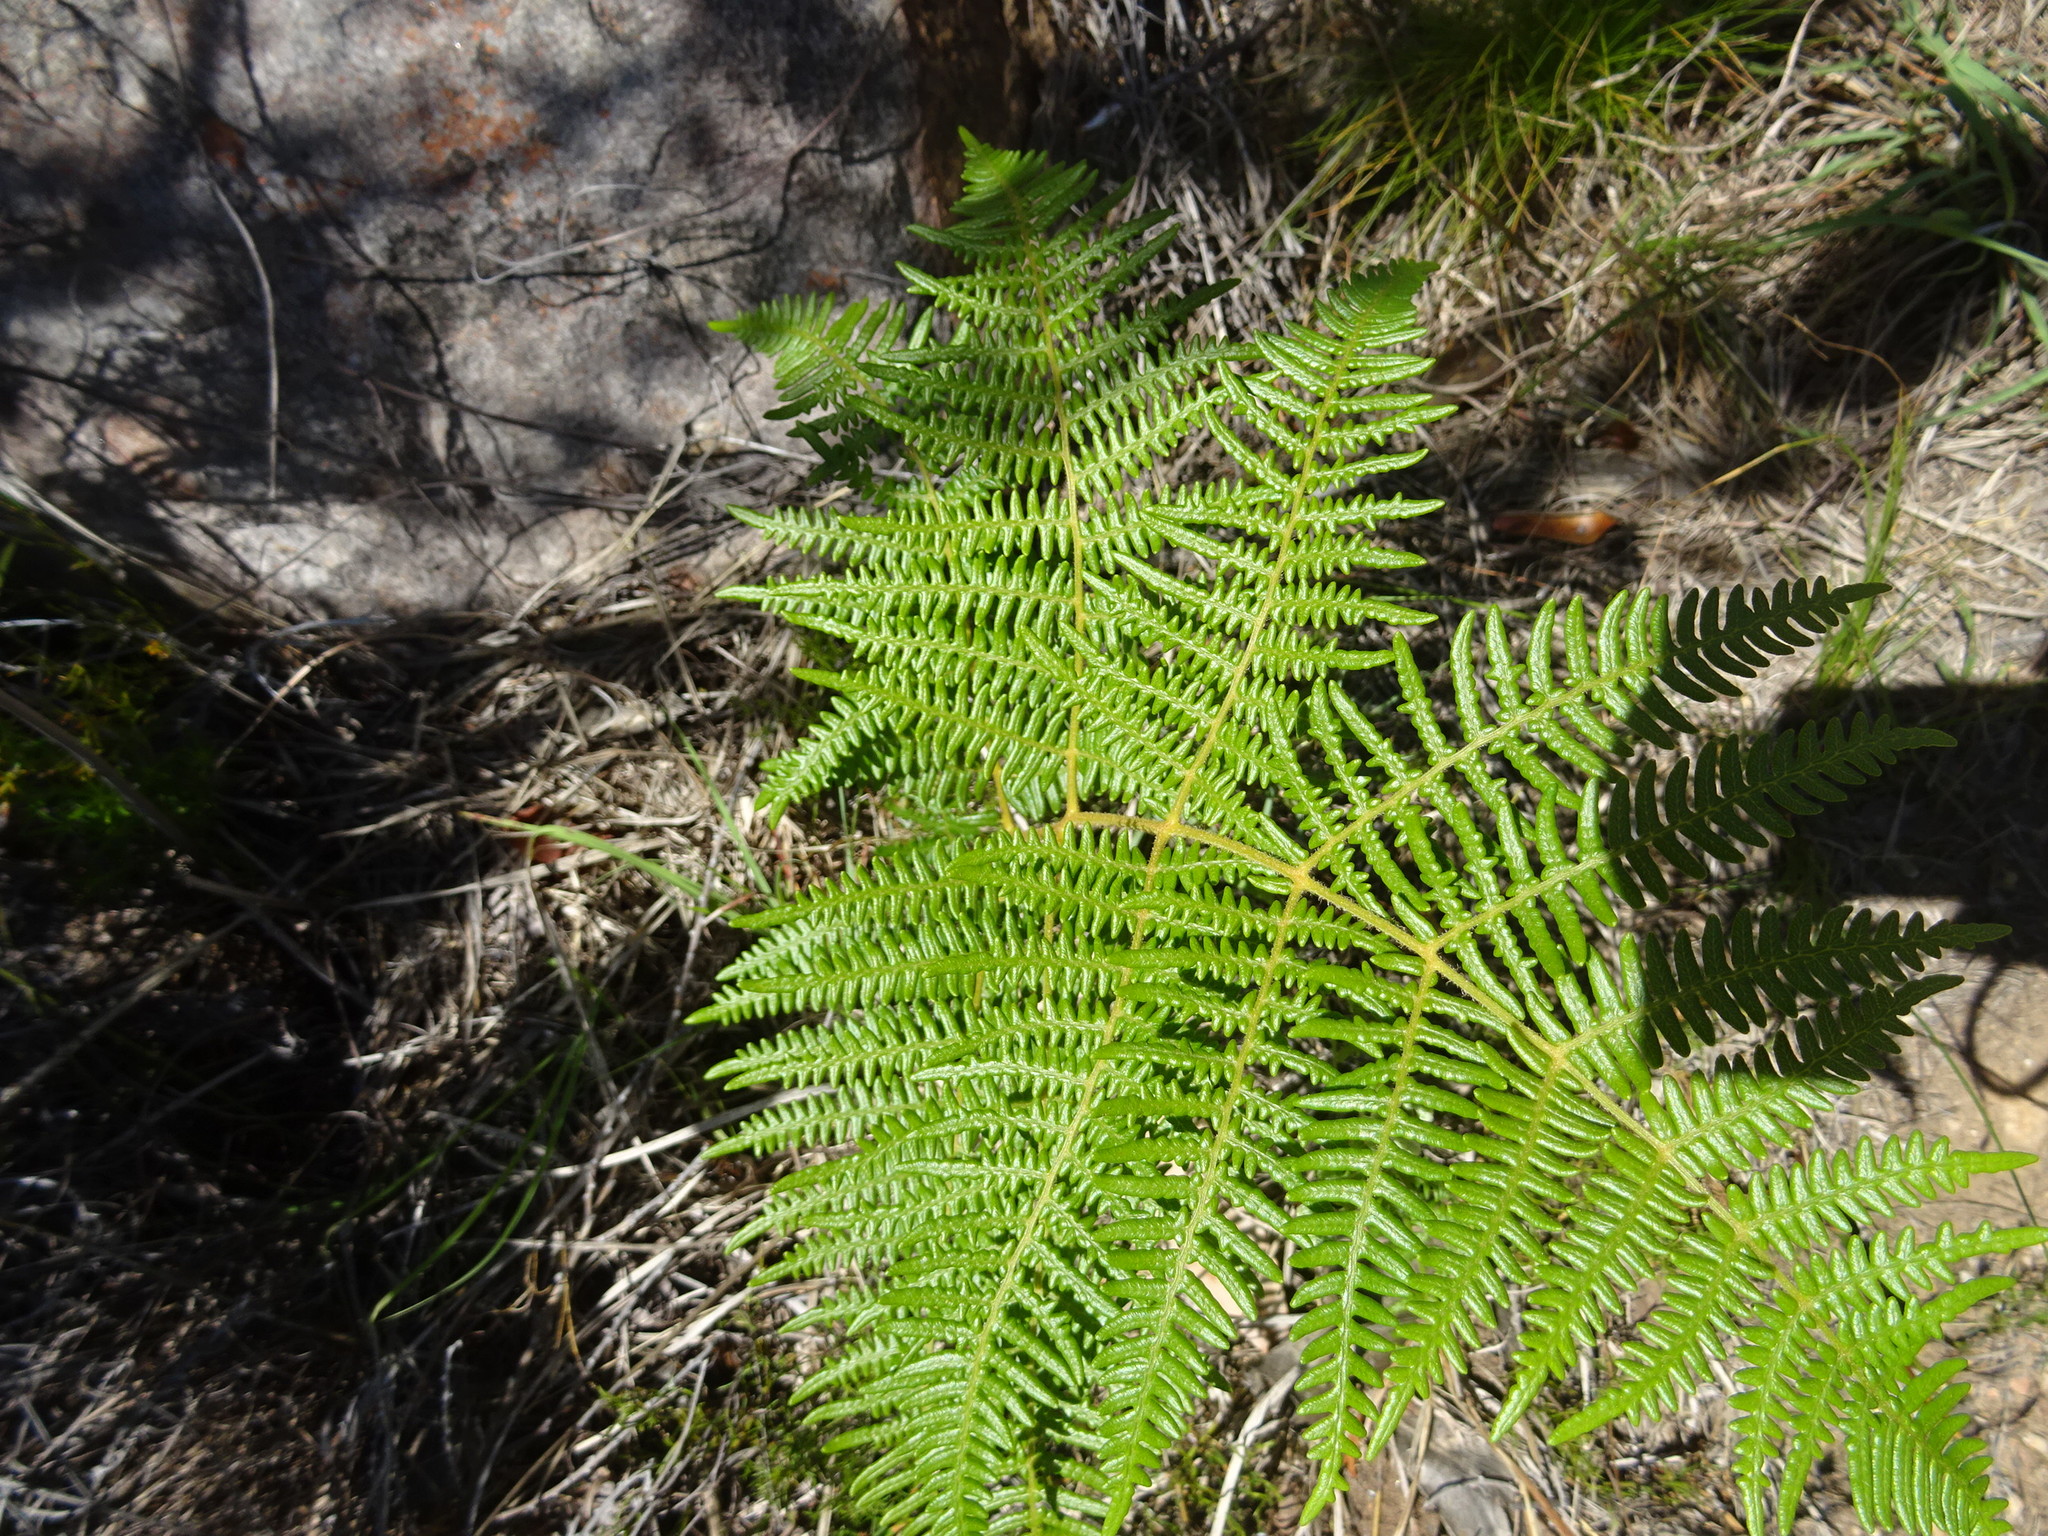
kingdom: Plantae
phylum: Tracheophyta
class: Polypodiopsida
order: Polypodiales
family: Dennstaedtiaceae
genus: Pteridium
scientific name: Pteridium aquilinum
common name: Bracken
